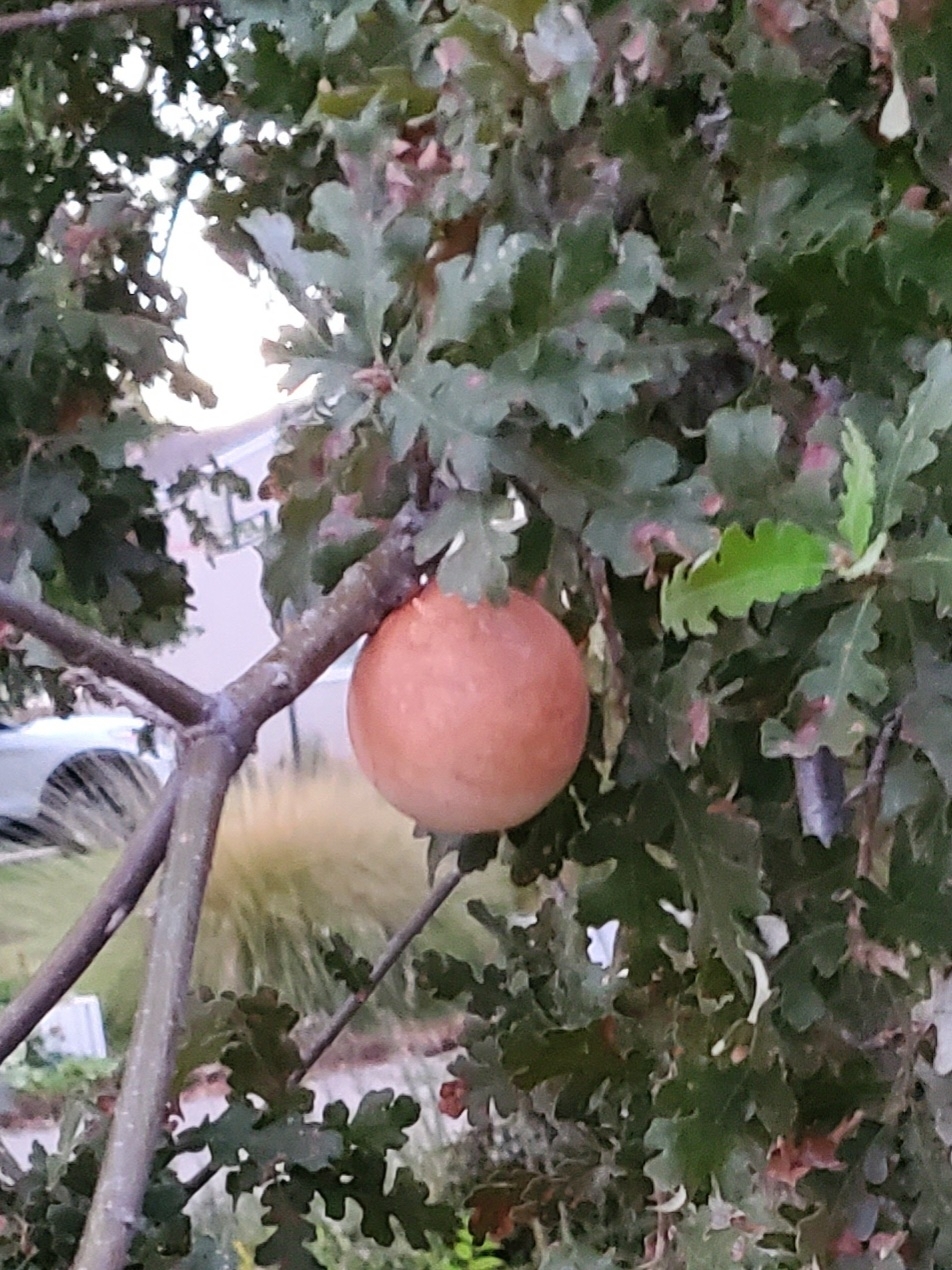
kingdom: Animalia
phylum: Arthropoda
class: Insecta
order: Hymenoptera
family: Cynipidae
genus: Andricus
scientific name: Andricus quercuscalifornicus
